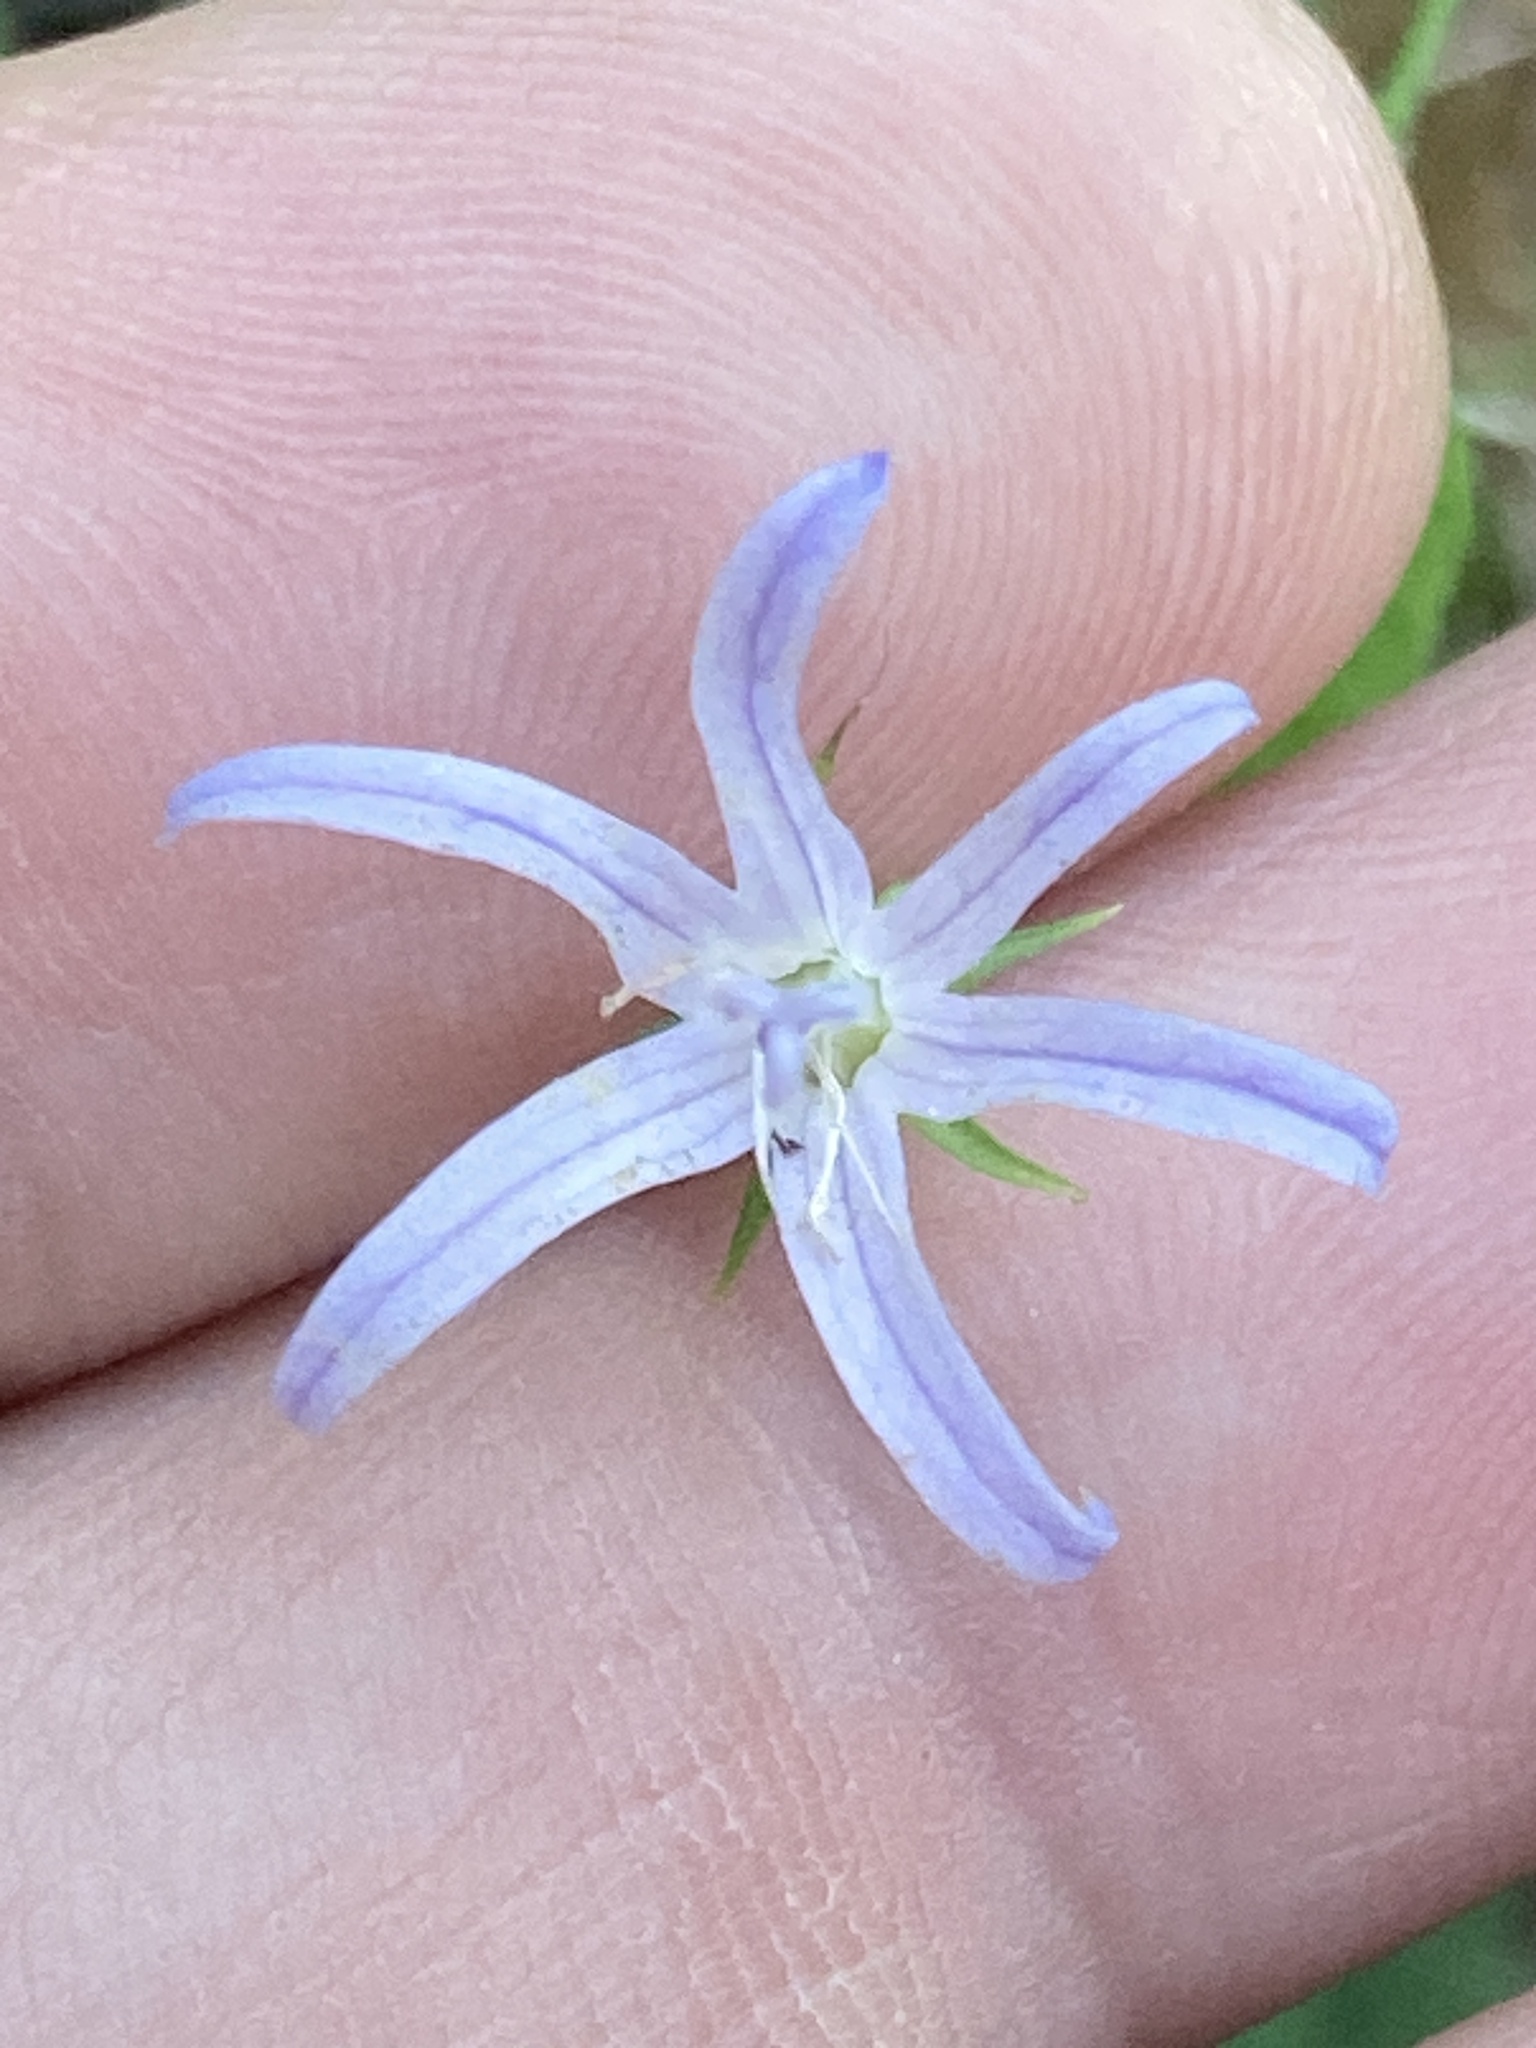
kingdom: Plantae
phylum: Tracheophyta
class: Magnoliopsida
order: Asterales
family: Campanulaceae
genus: Smithiastrum
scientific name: Smithiastrum prenanthoides
